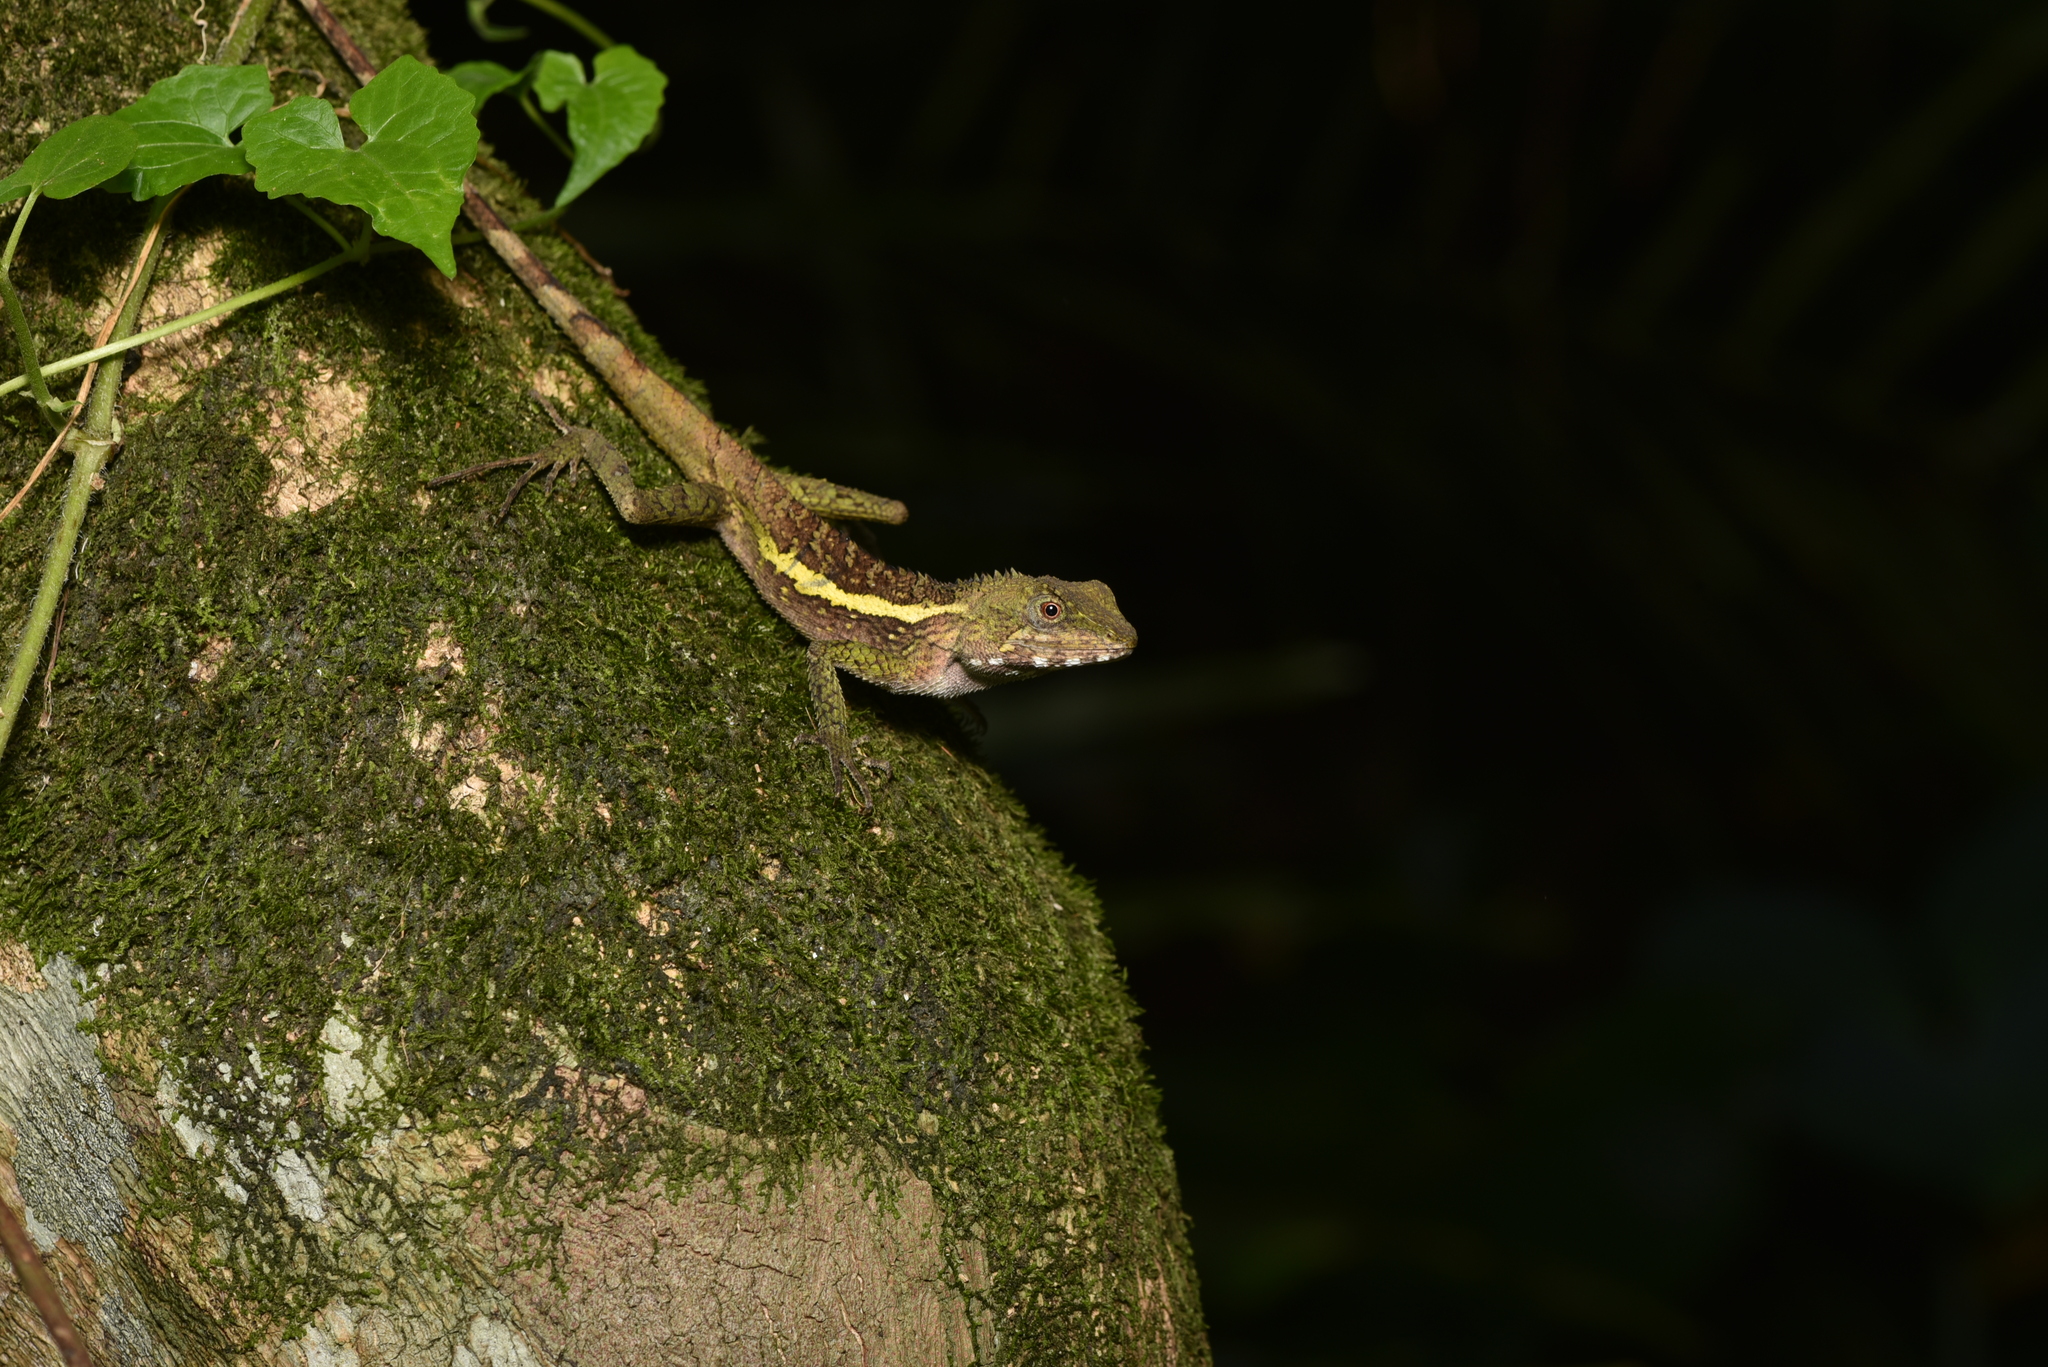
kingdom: Animalia
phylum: Chordata
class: Squamata
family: Agamidae
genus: Diploderma
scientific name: Diploderma swinhonis
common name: Taiwan japalure
